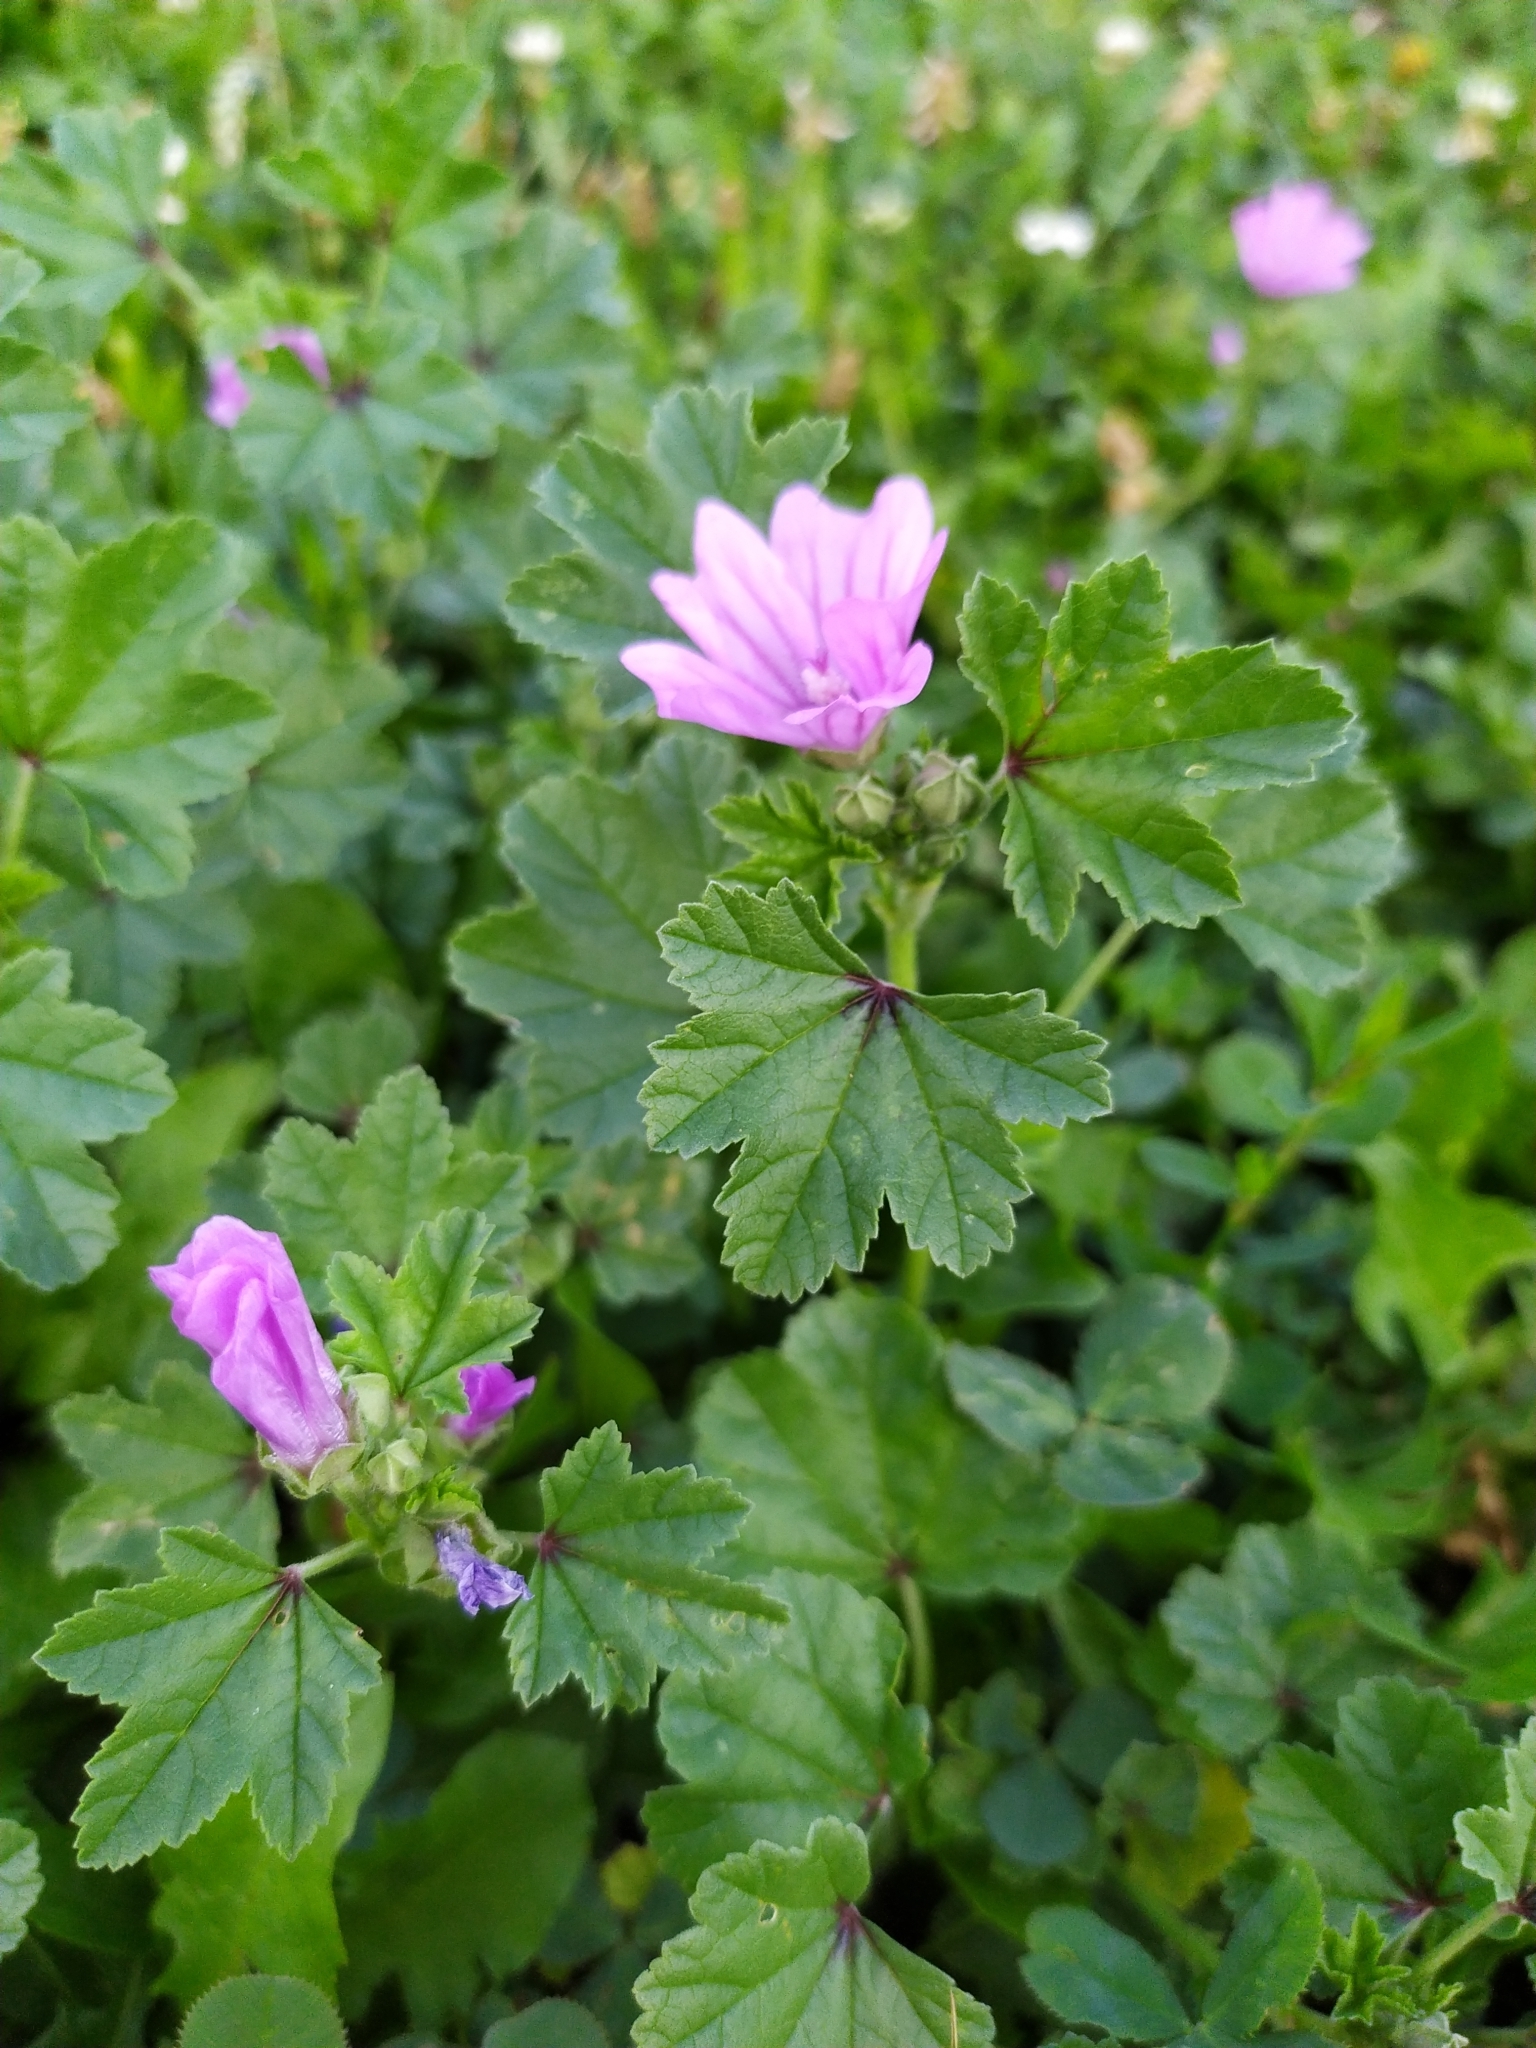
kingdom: Plantae
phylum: Tracheophyta
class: Magnoliopsida
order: Malvales
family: Malvaceae
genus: Malva
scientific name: Malva sylvestris
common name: Common mallow
